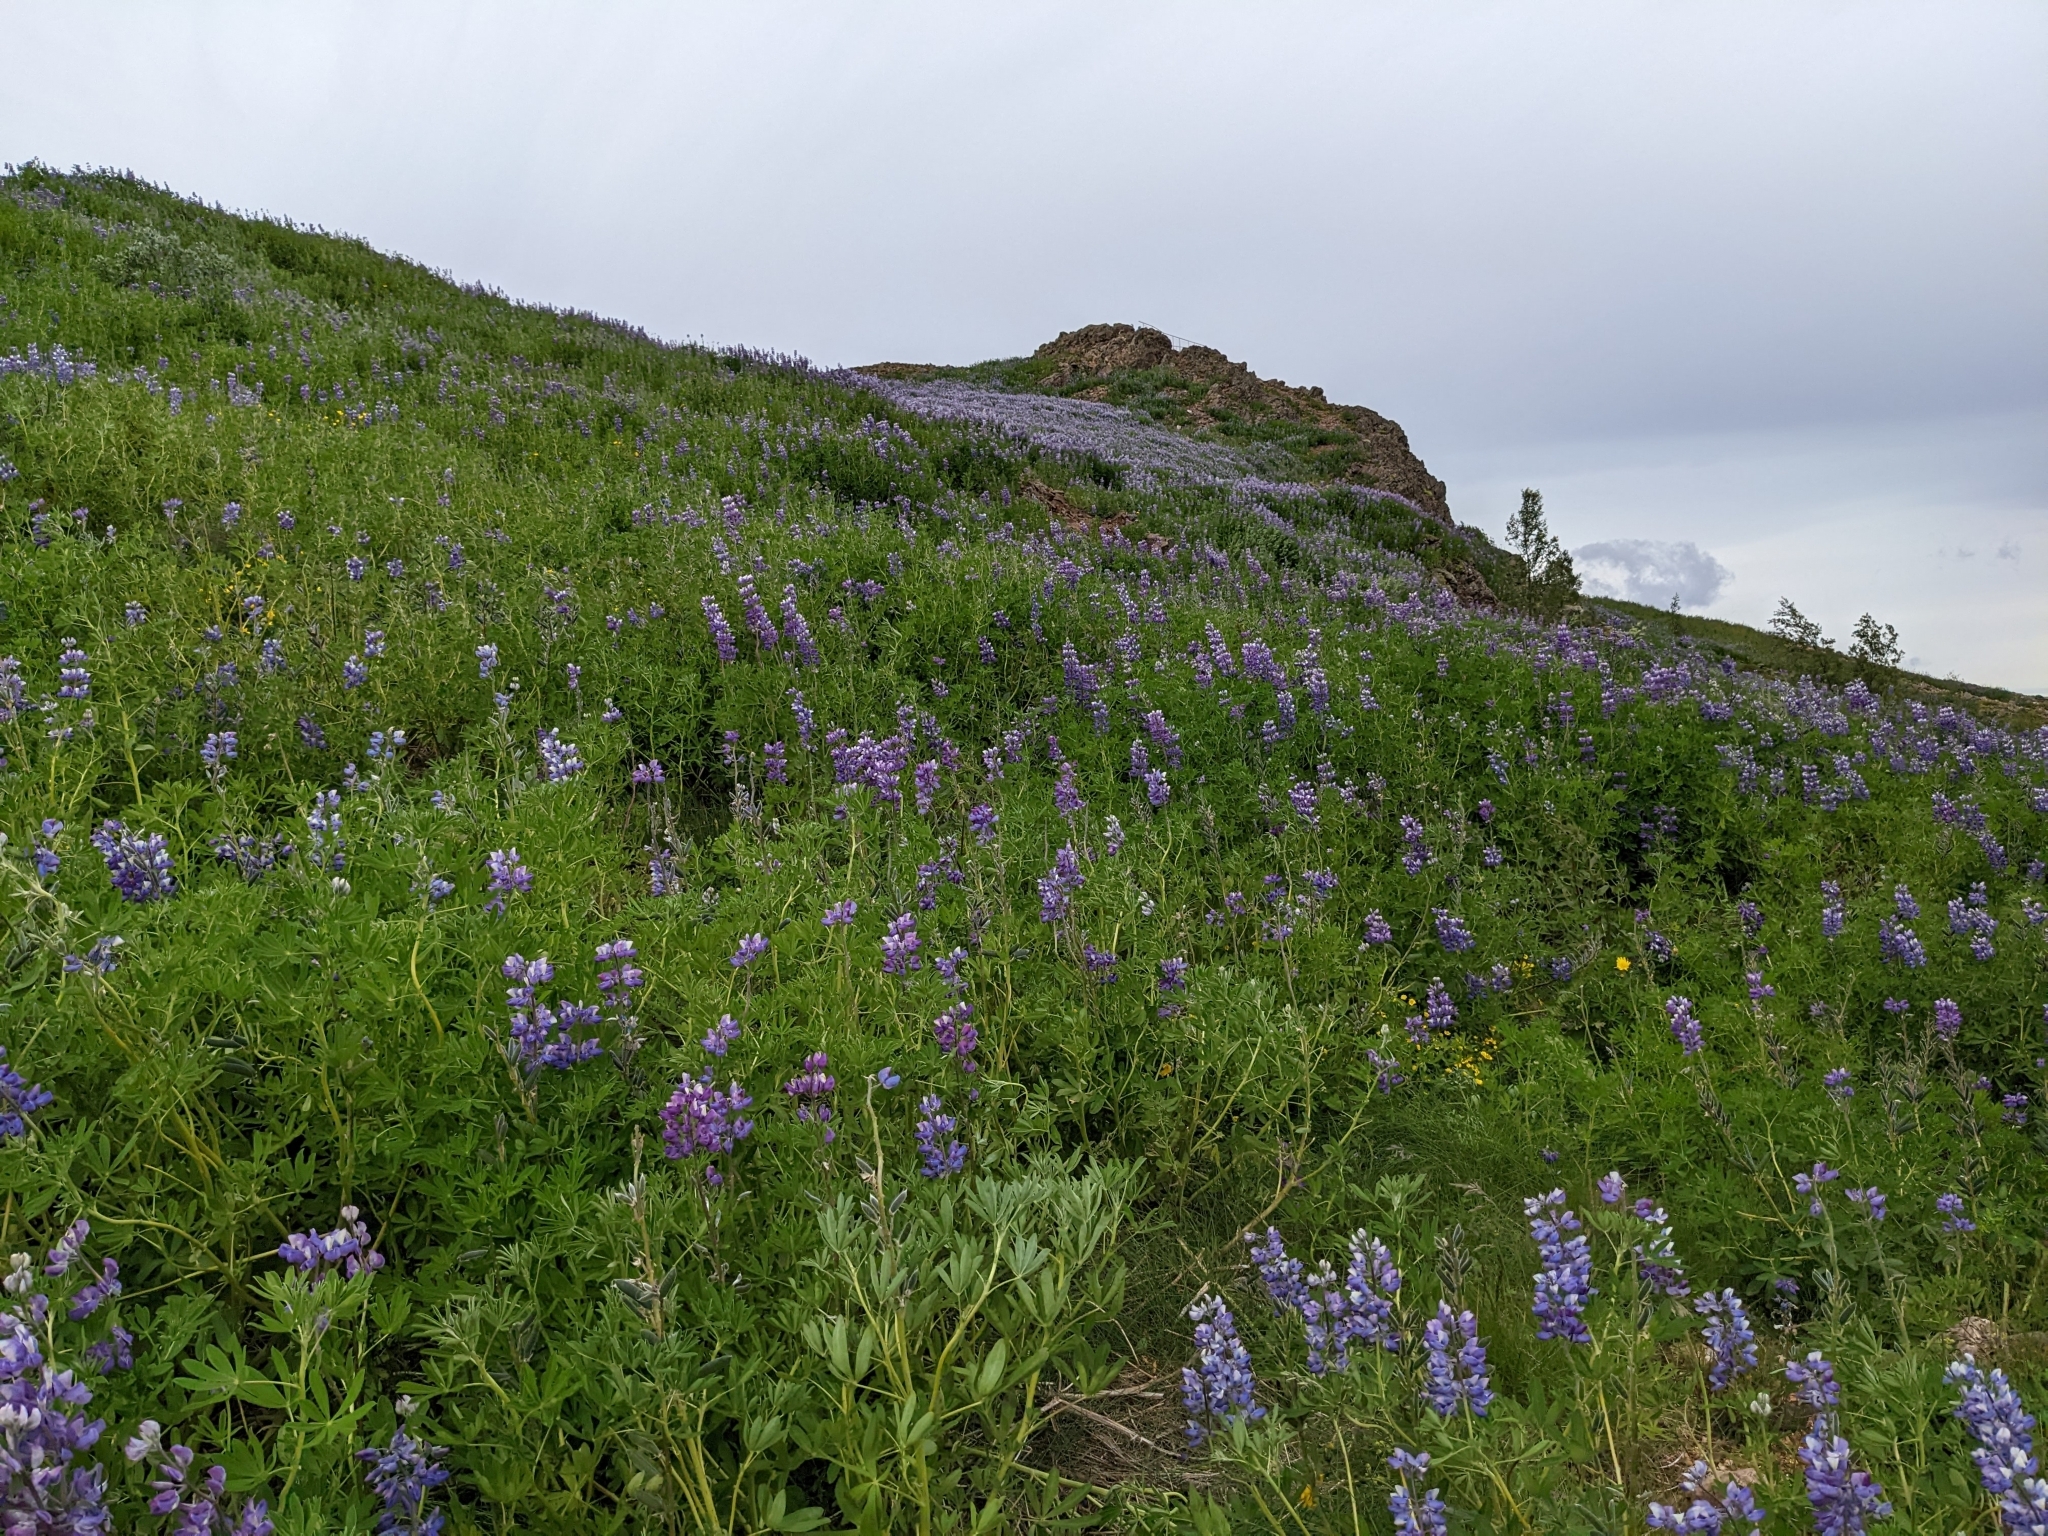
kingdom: Plantae
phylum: Tracheophyta
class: Magnoliopsida
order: Fabales
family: Fabaceae
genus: Lupinus
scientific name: Lupinus nootkatensis
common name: Nootka lupine
